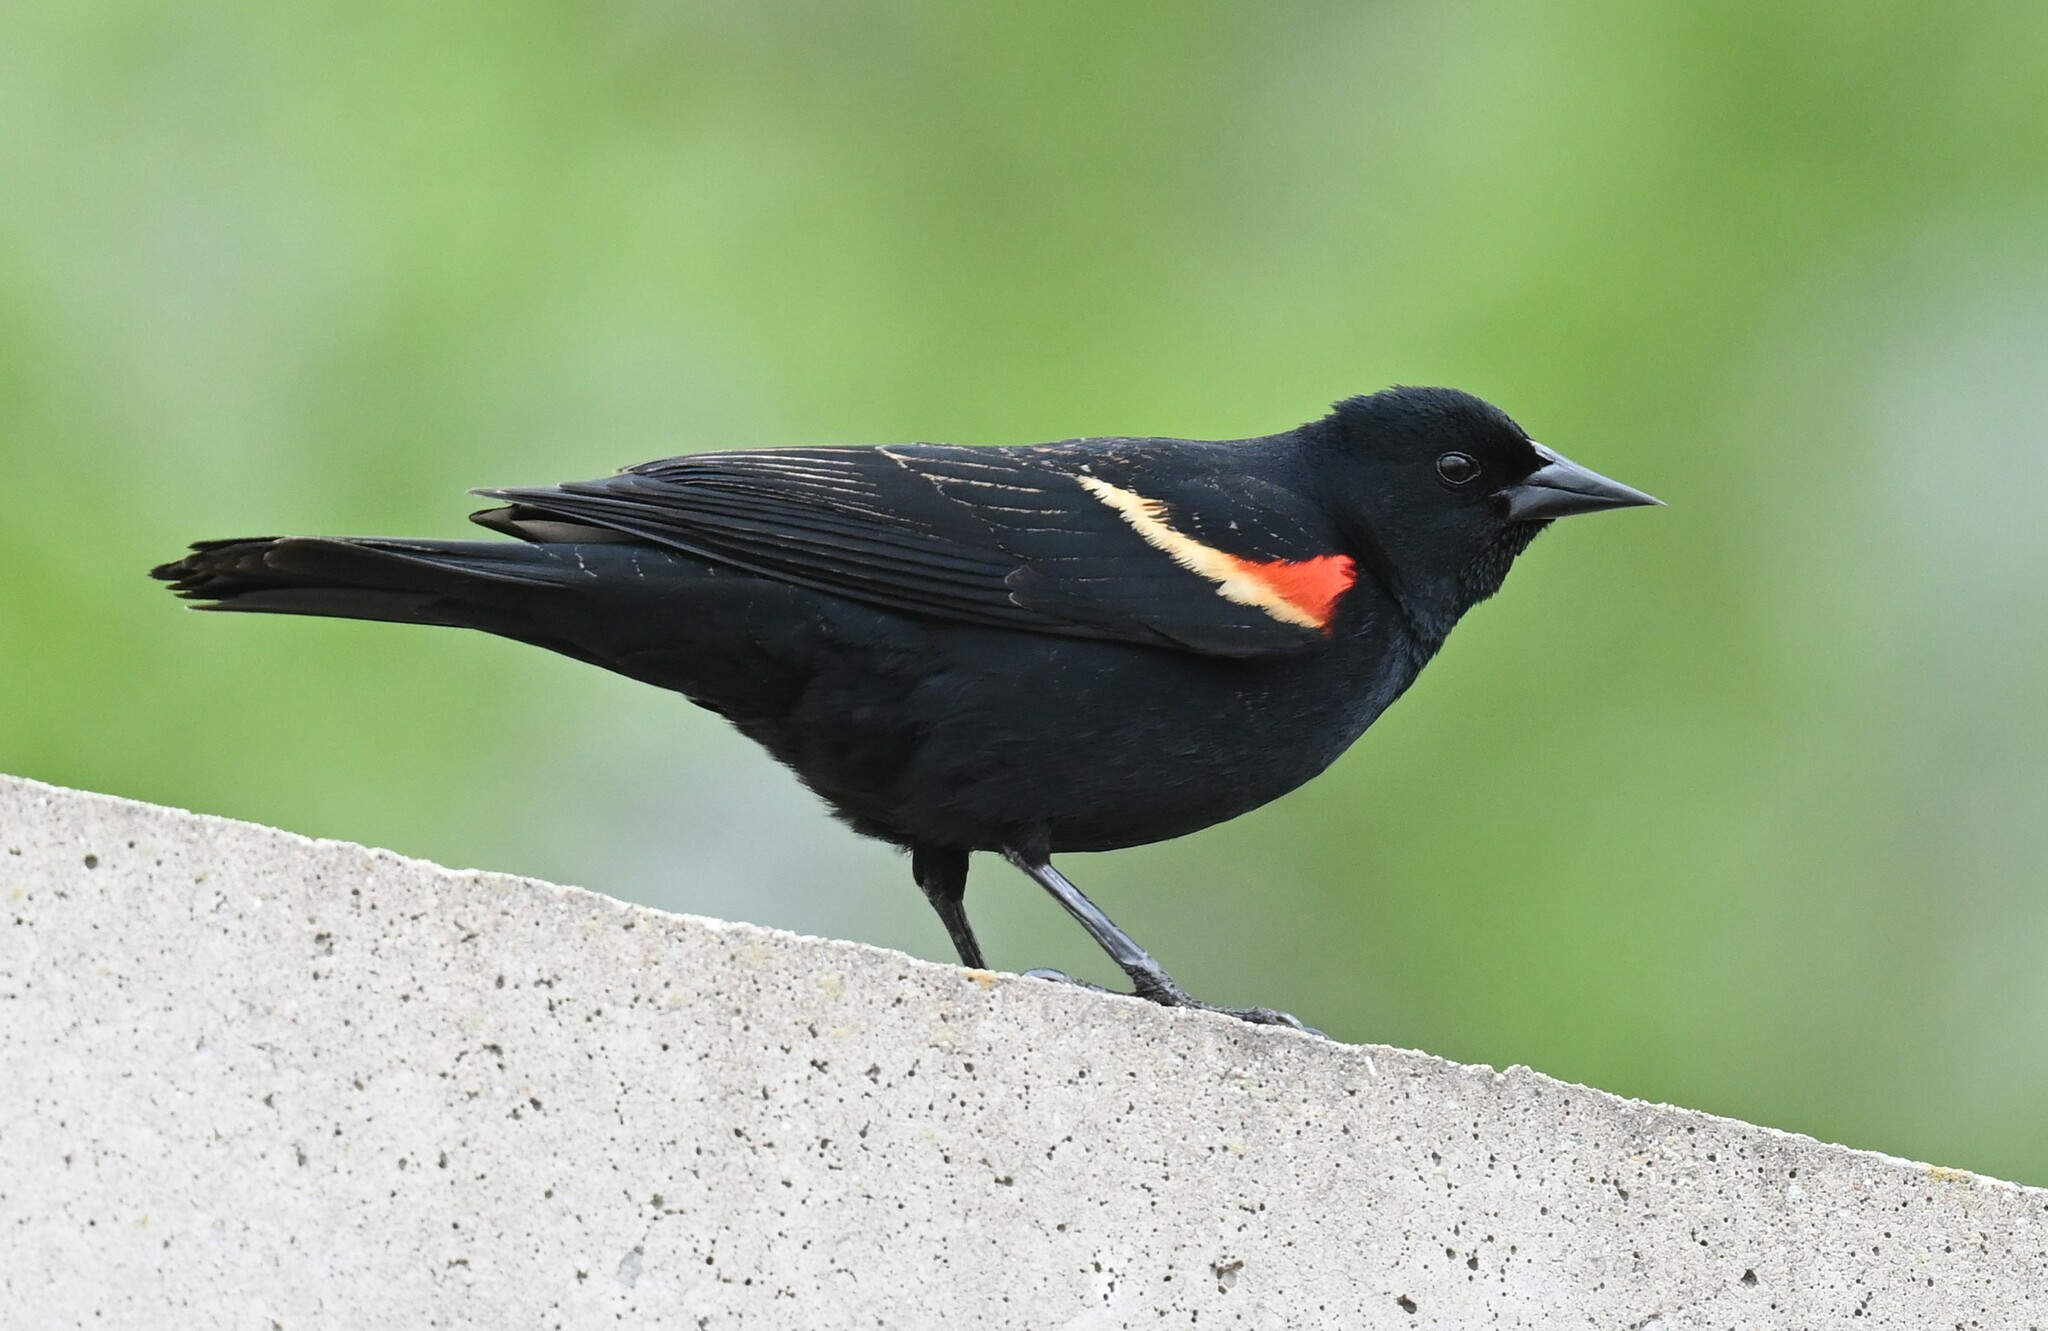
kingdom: Animalia
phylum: Chordata
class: Aves
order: Passeriformes
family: Icteridae
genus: Agelaius
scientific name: Agelaius phoeniceus
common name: Red-winged blackbird
